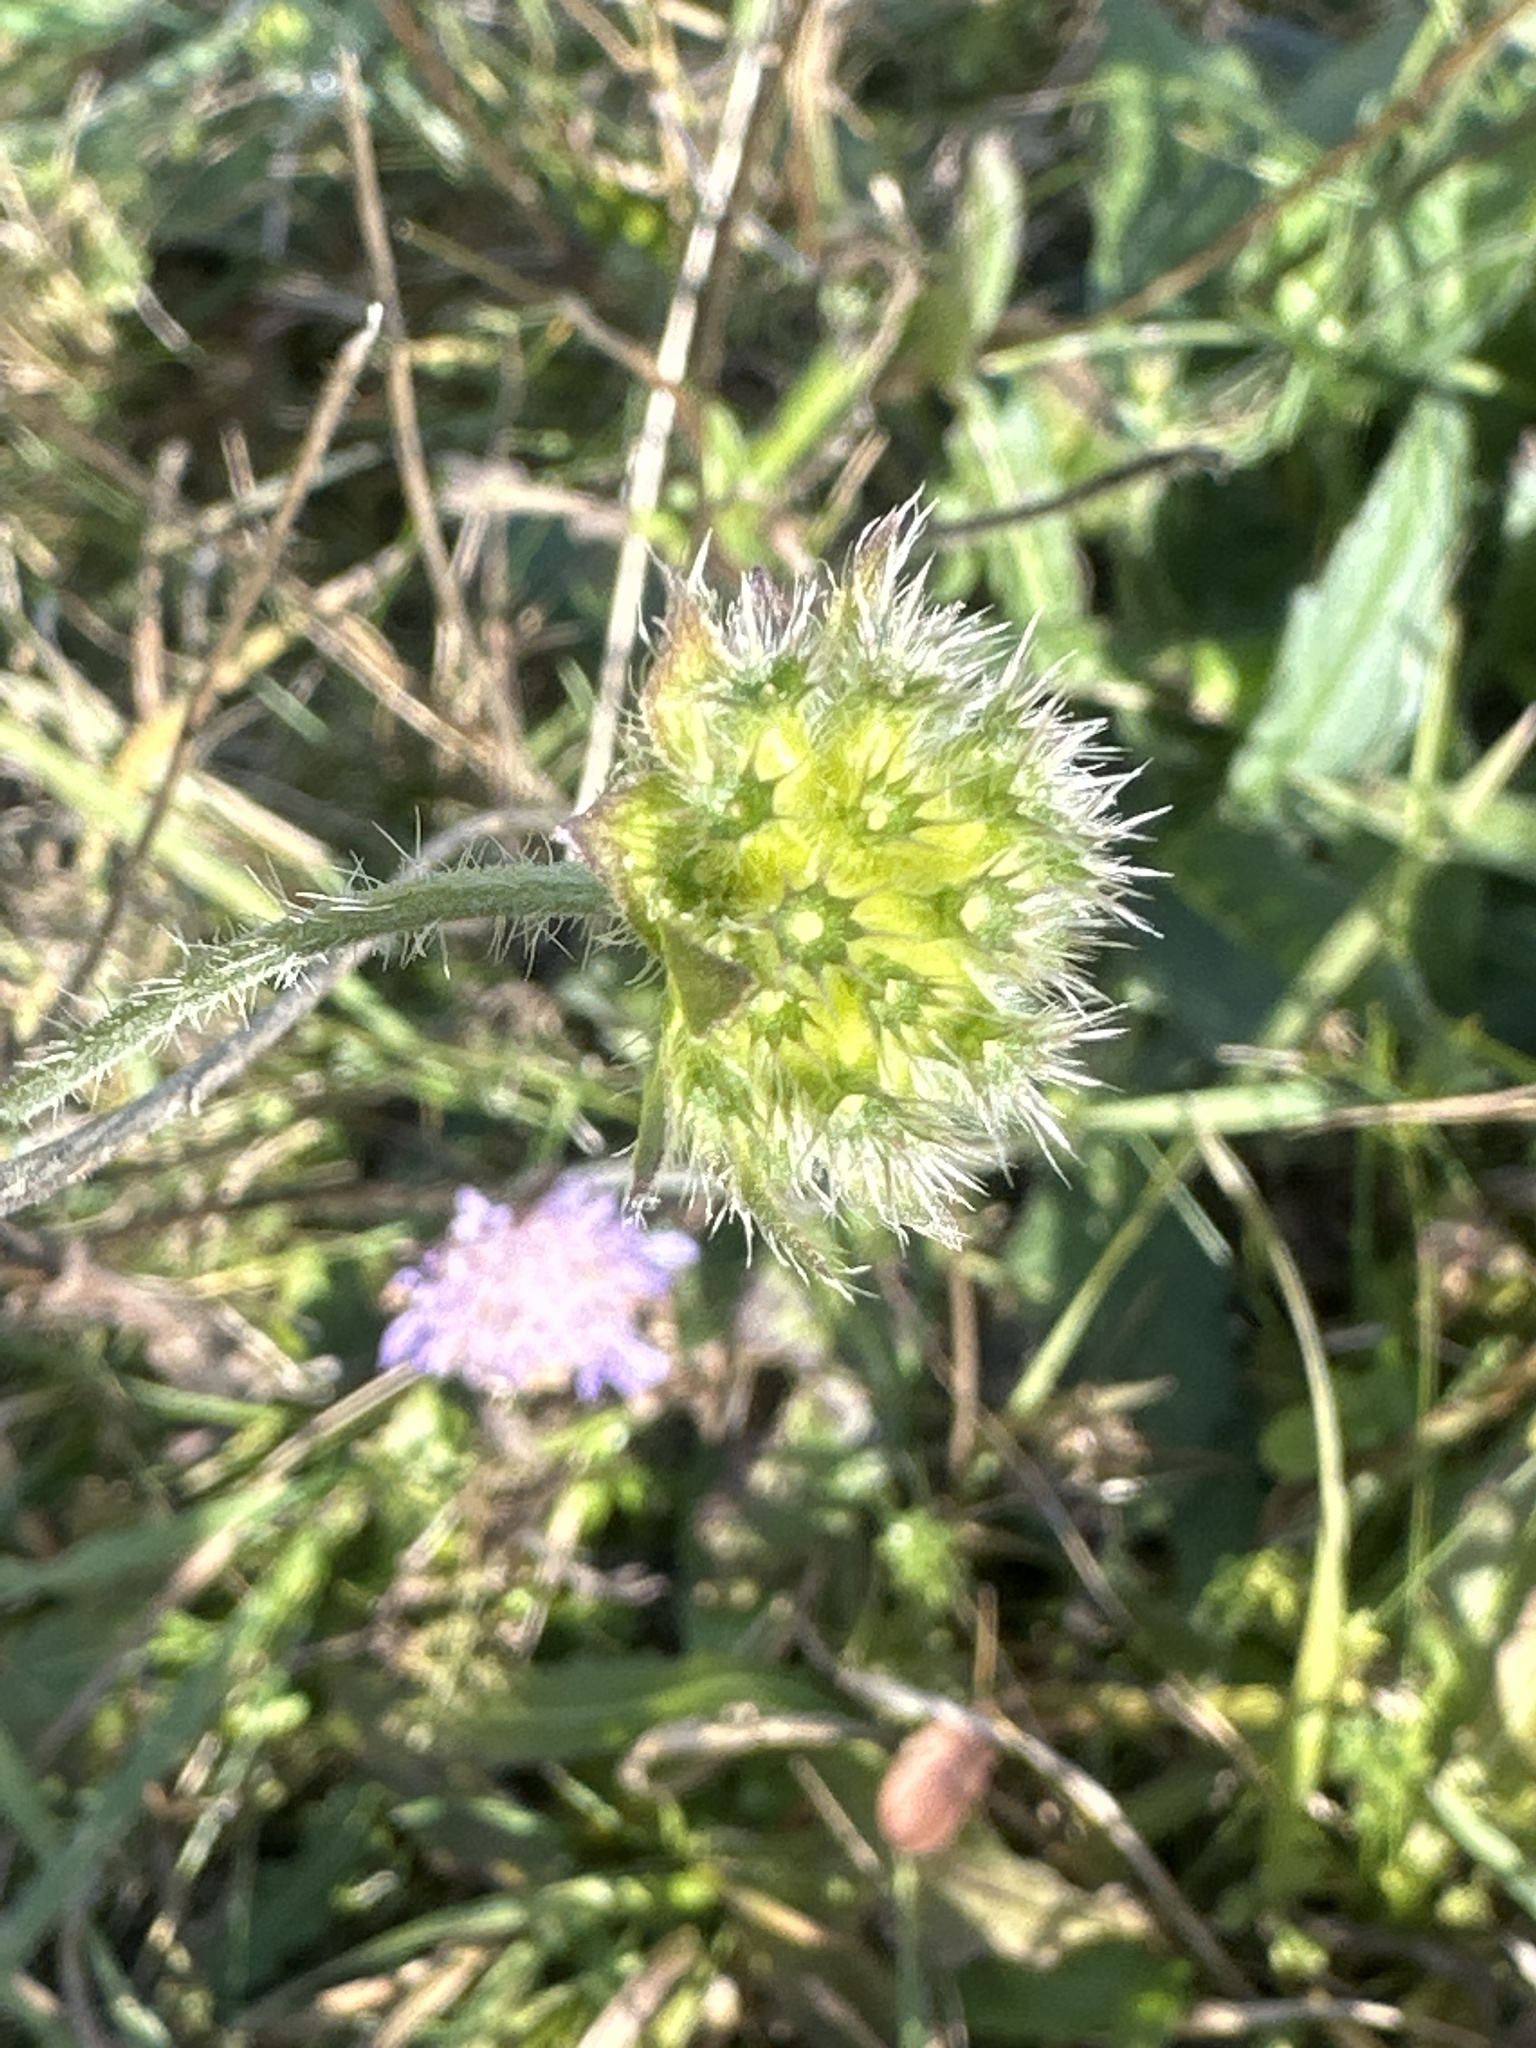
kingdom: Plantae
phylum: Tracheophyta
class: Magnoliopsida
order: Dipsacales
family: Caprifoliaceae
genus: Knautia
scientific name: Knautia arvensis
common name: Field scabiosa
